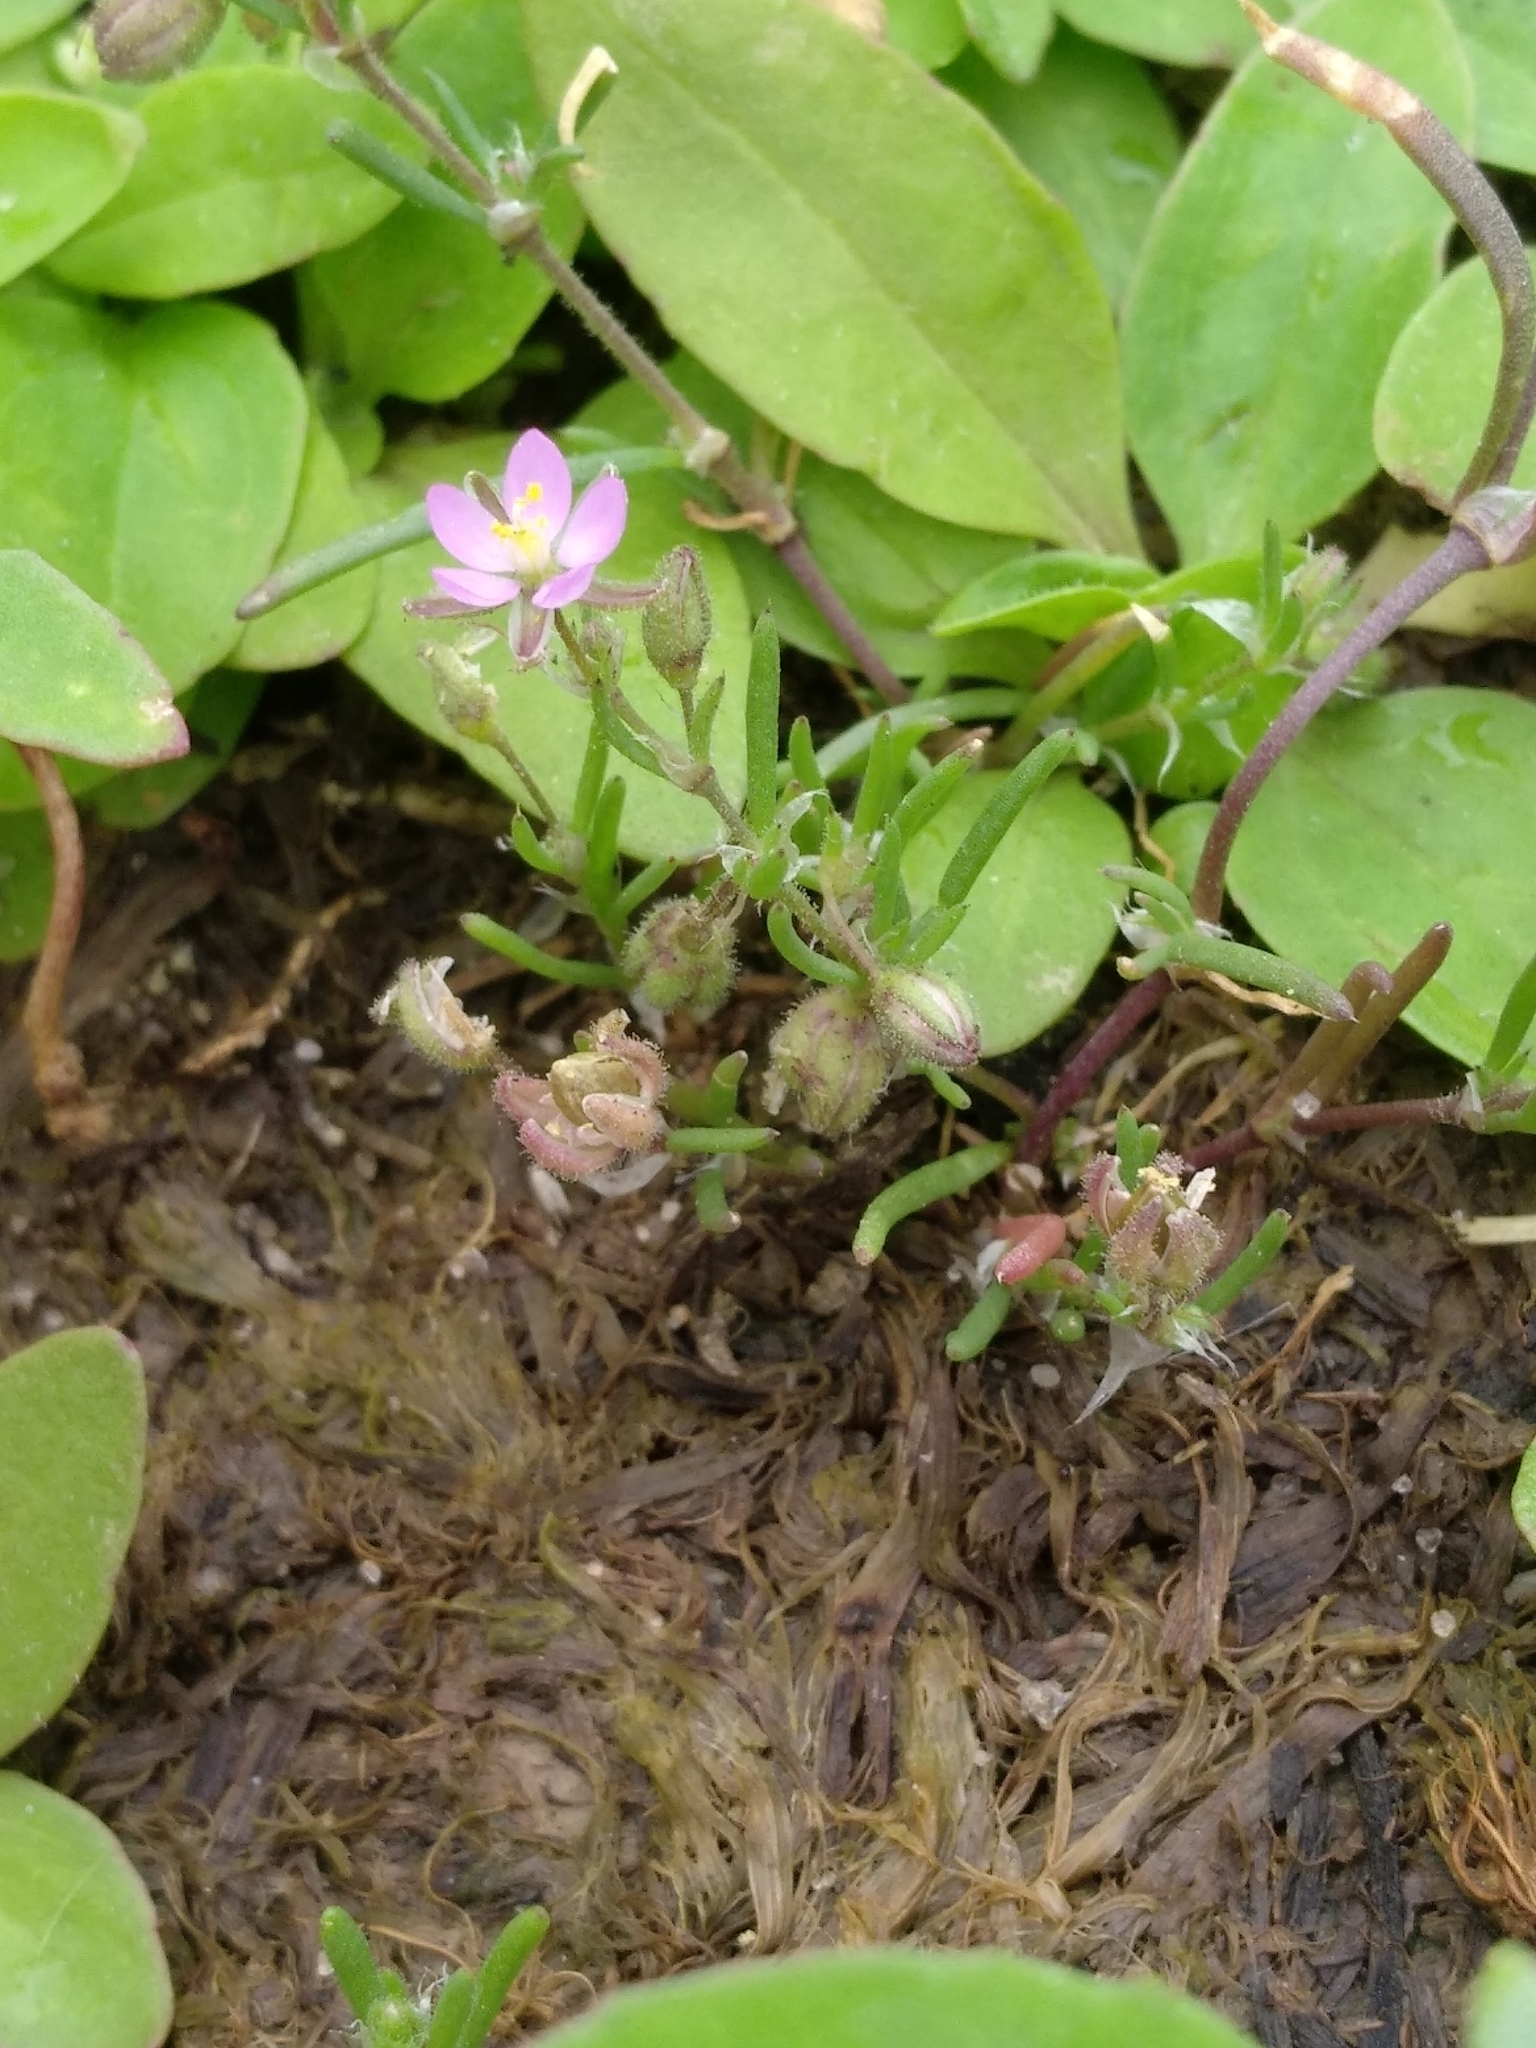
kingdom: Plantae
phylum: Tracheophyta
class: Magnoliopsida
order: Caryophyllales
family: Caryophyllaceae
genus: Spergularia
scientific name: Spergularia rubra
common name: Red sand-spurrey
